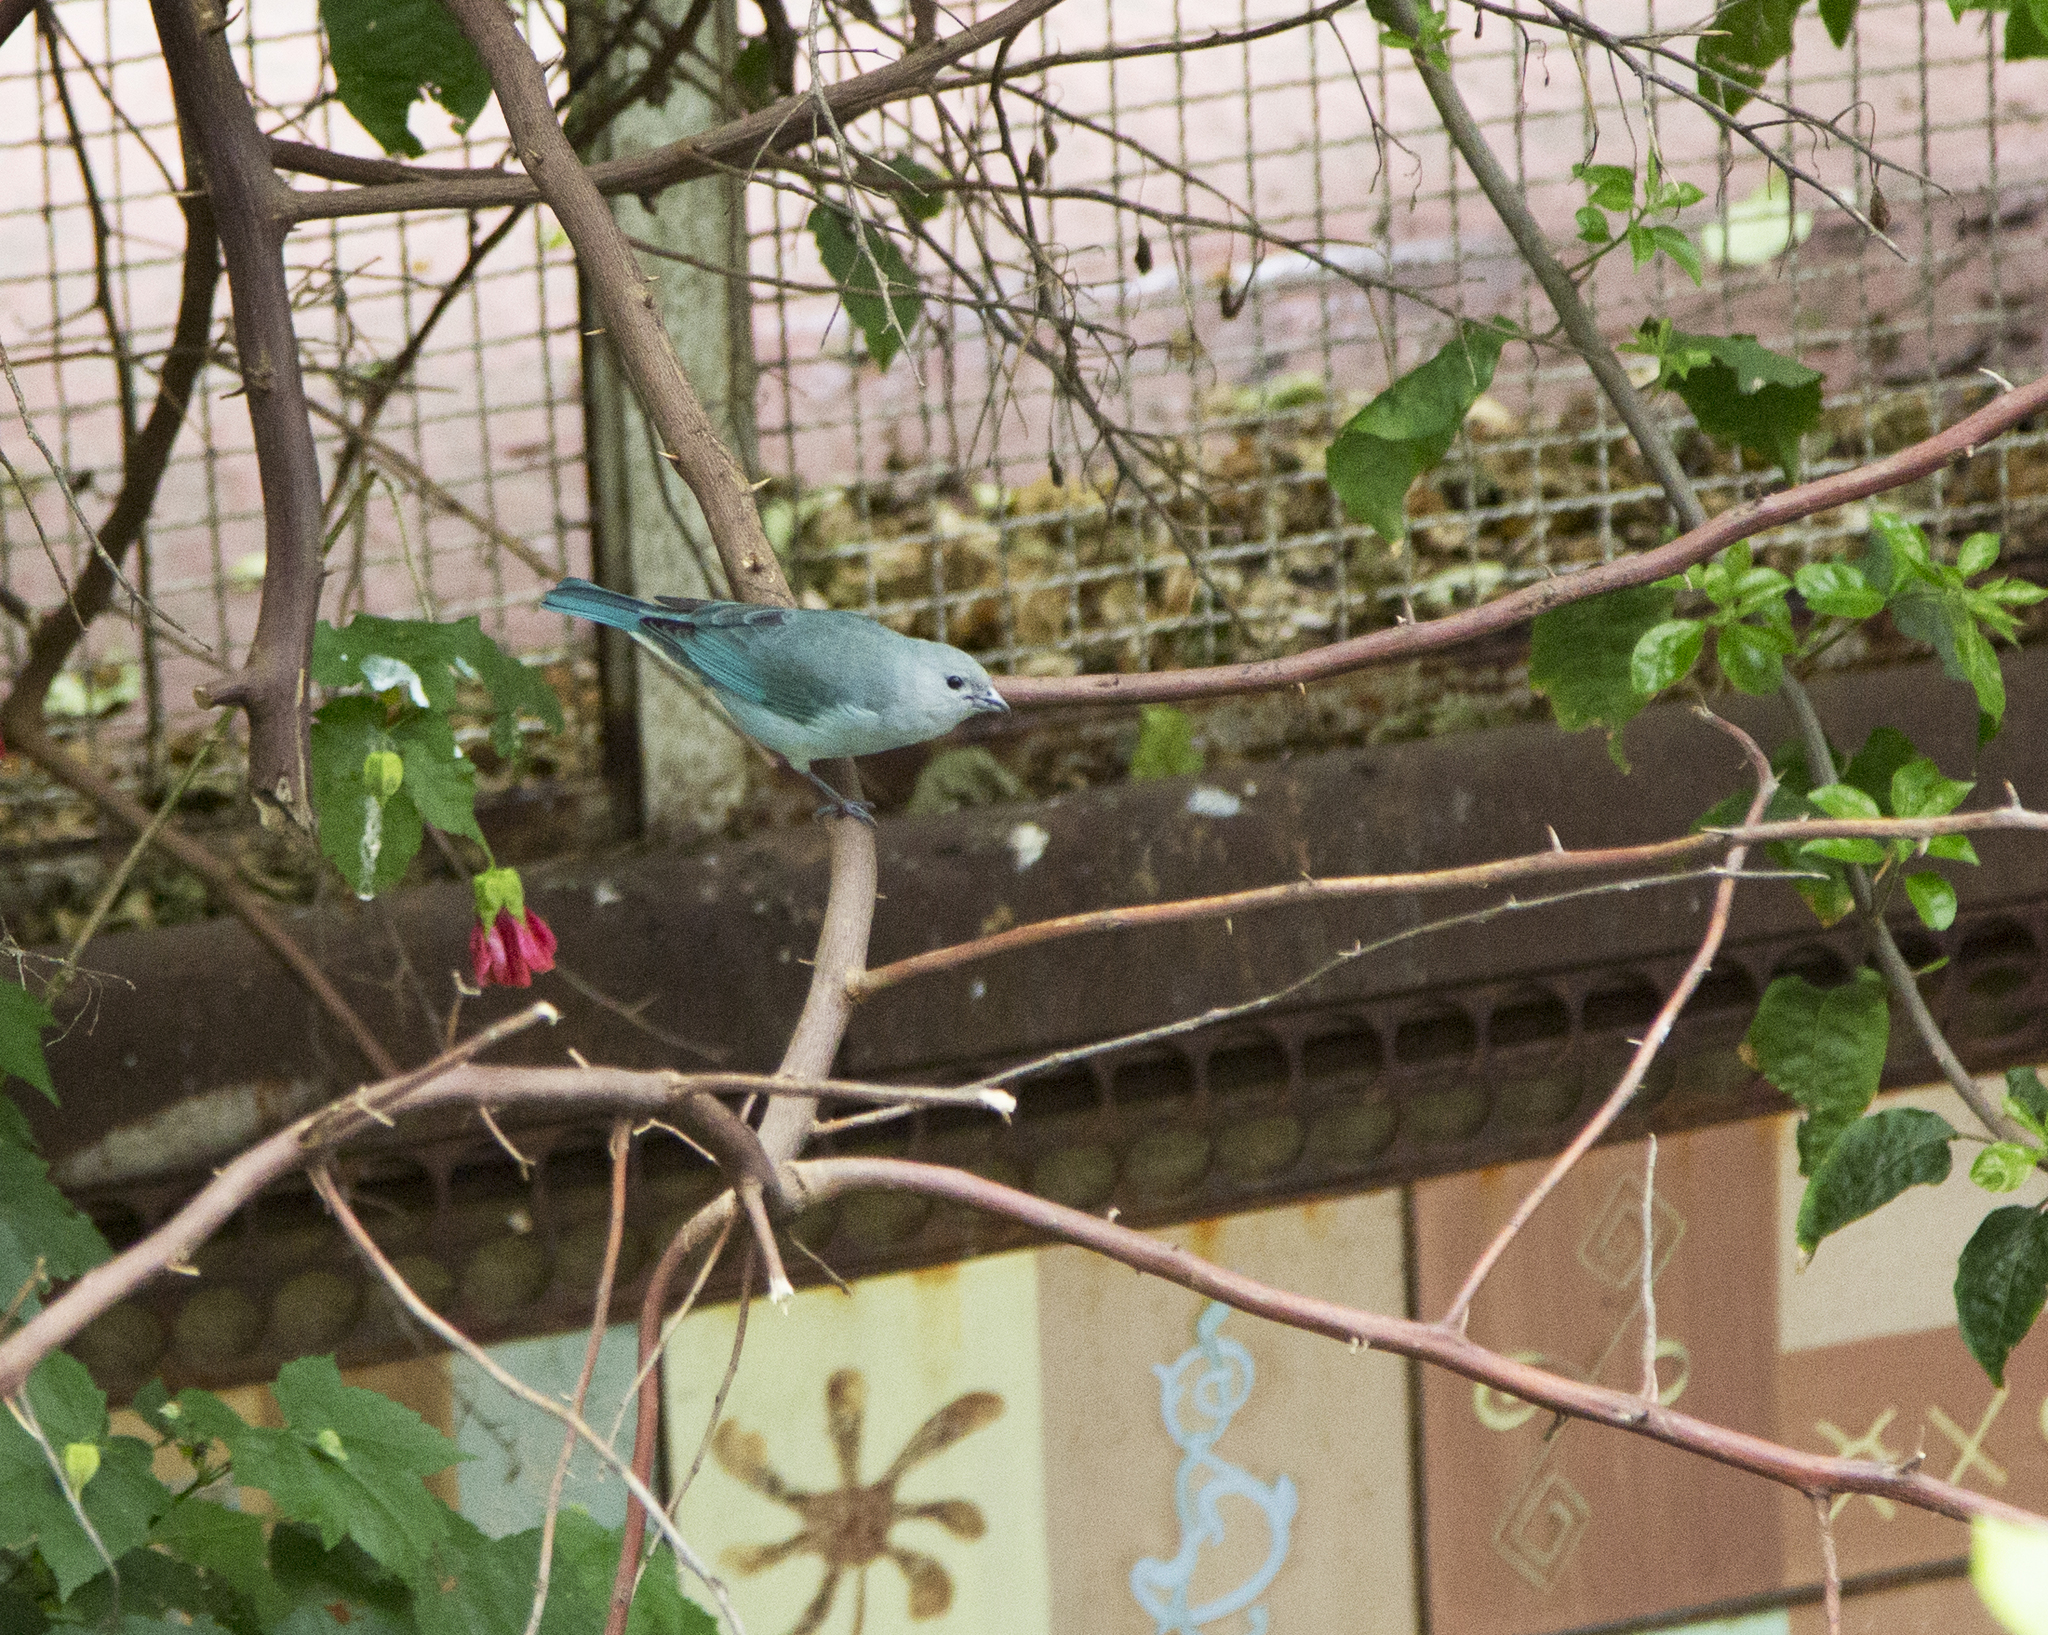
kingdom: Animalia
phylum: Chordata
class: Aves
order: Passeriformes
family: Thraupidae
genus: Thraupis
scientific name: Thraupis sayaca
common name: Sayaca tanager
